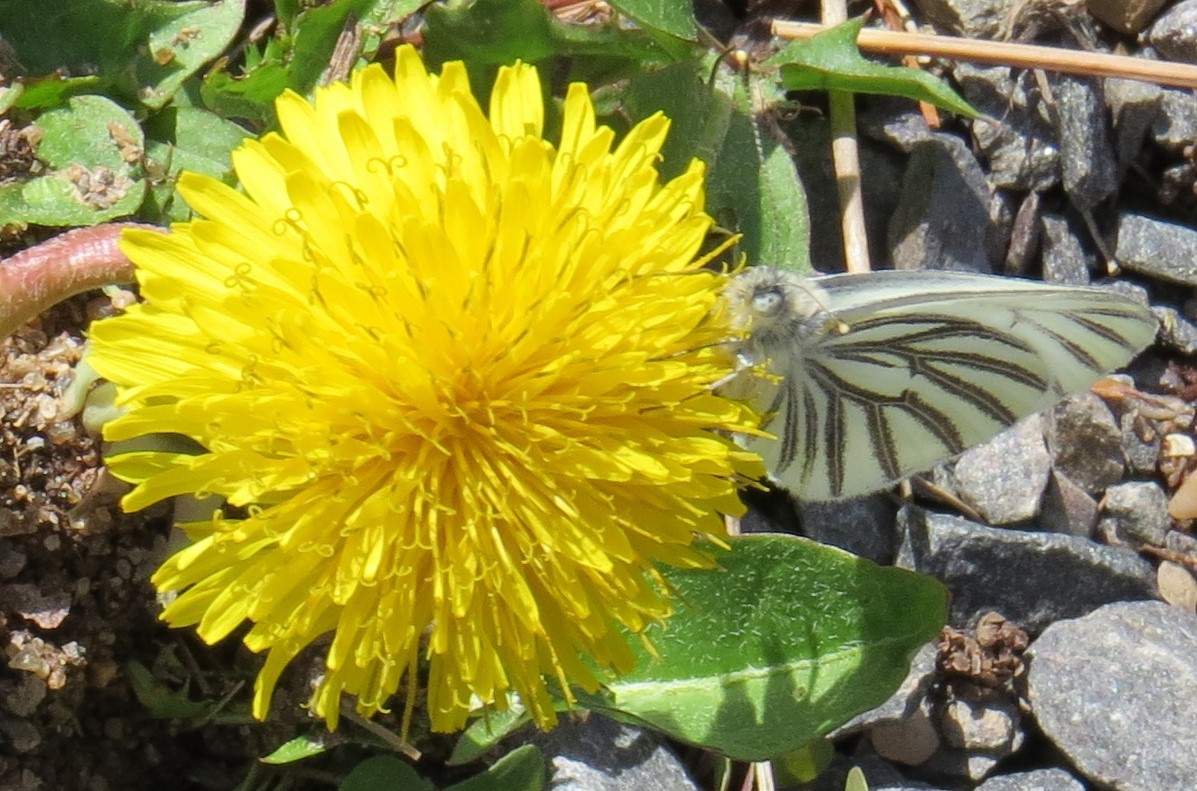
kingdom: Animalia
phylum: Arthropoda
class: Insecta
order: Lepidoptera
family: Pieridae
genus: Pieris
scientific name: Pieris oleracea
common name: Mustard white
